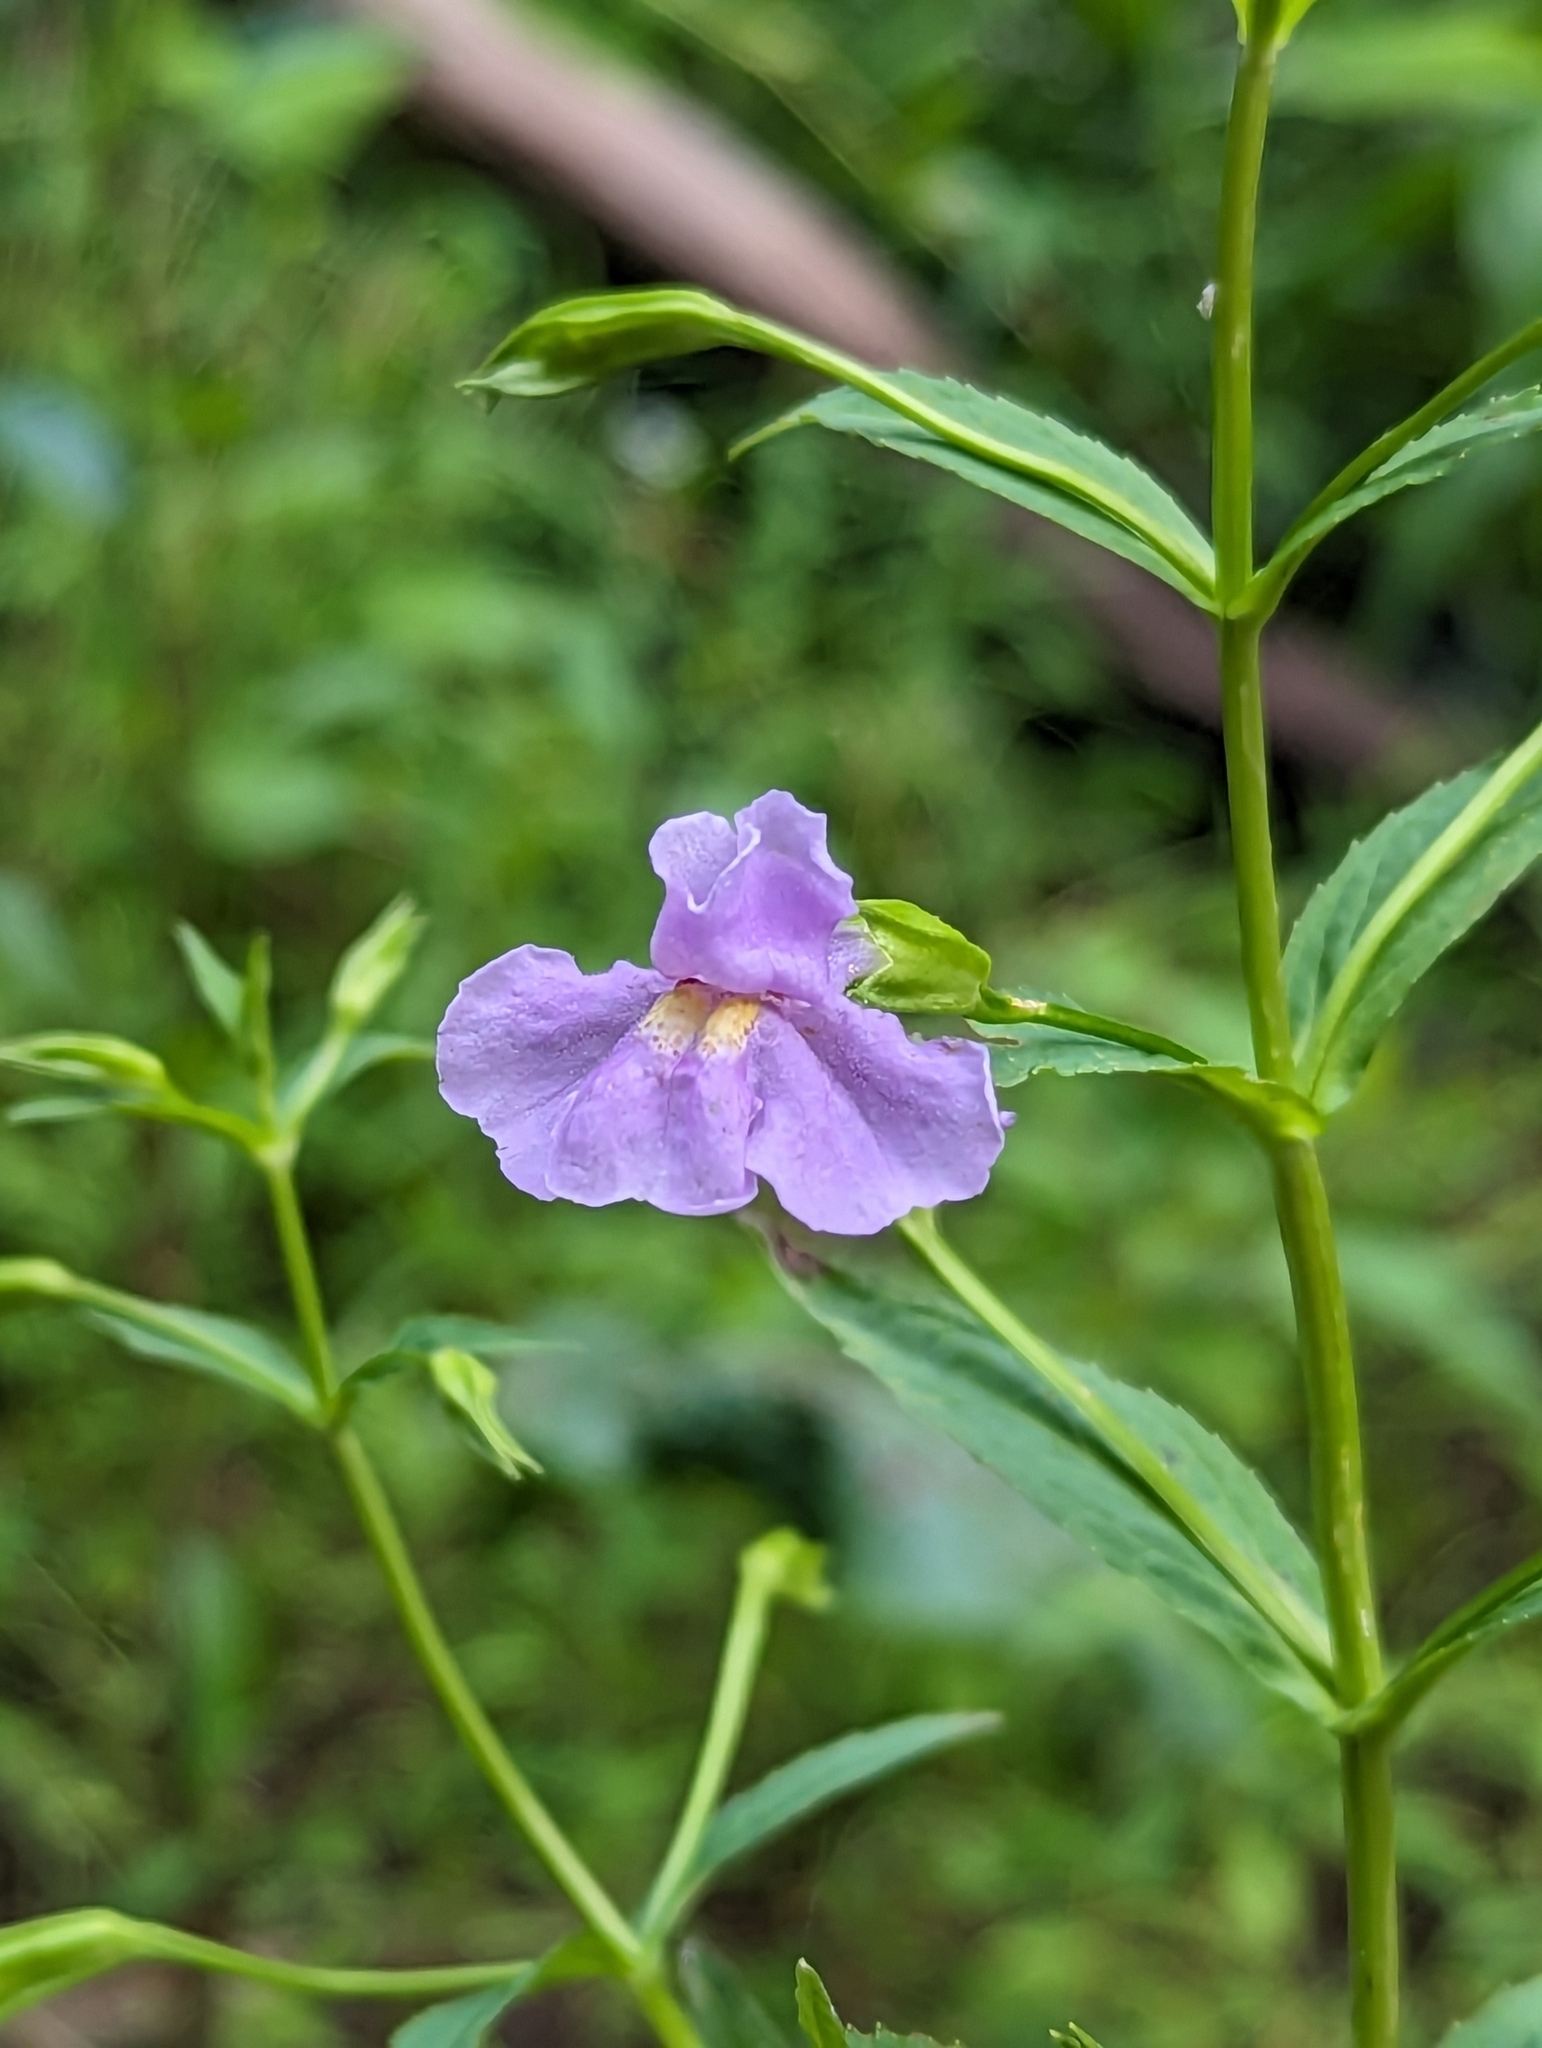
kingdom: Plantae
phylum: Tracheophyta
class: Magnoliopsida
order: Lamiales
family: Phrymaceae
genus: Mimulus
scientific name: Mimulus ringens
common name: Allegheny monkeyflower
